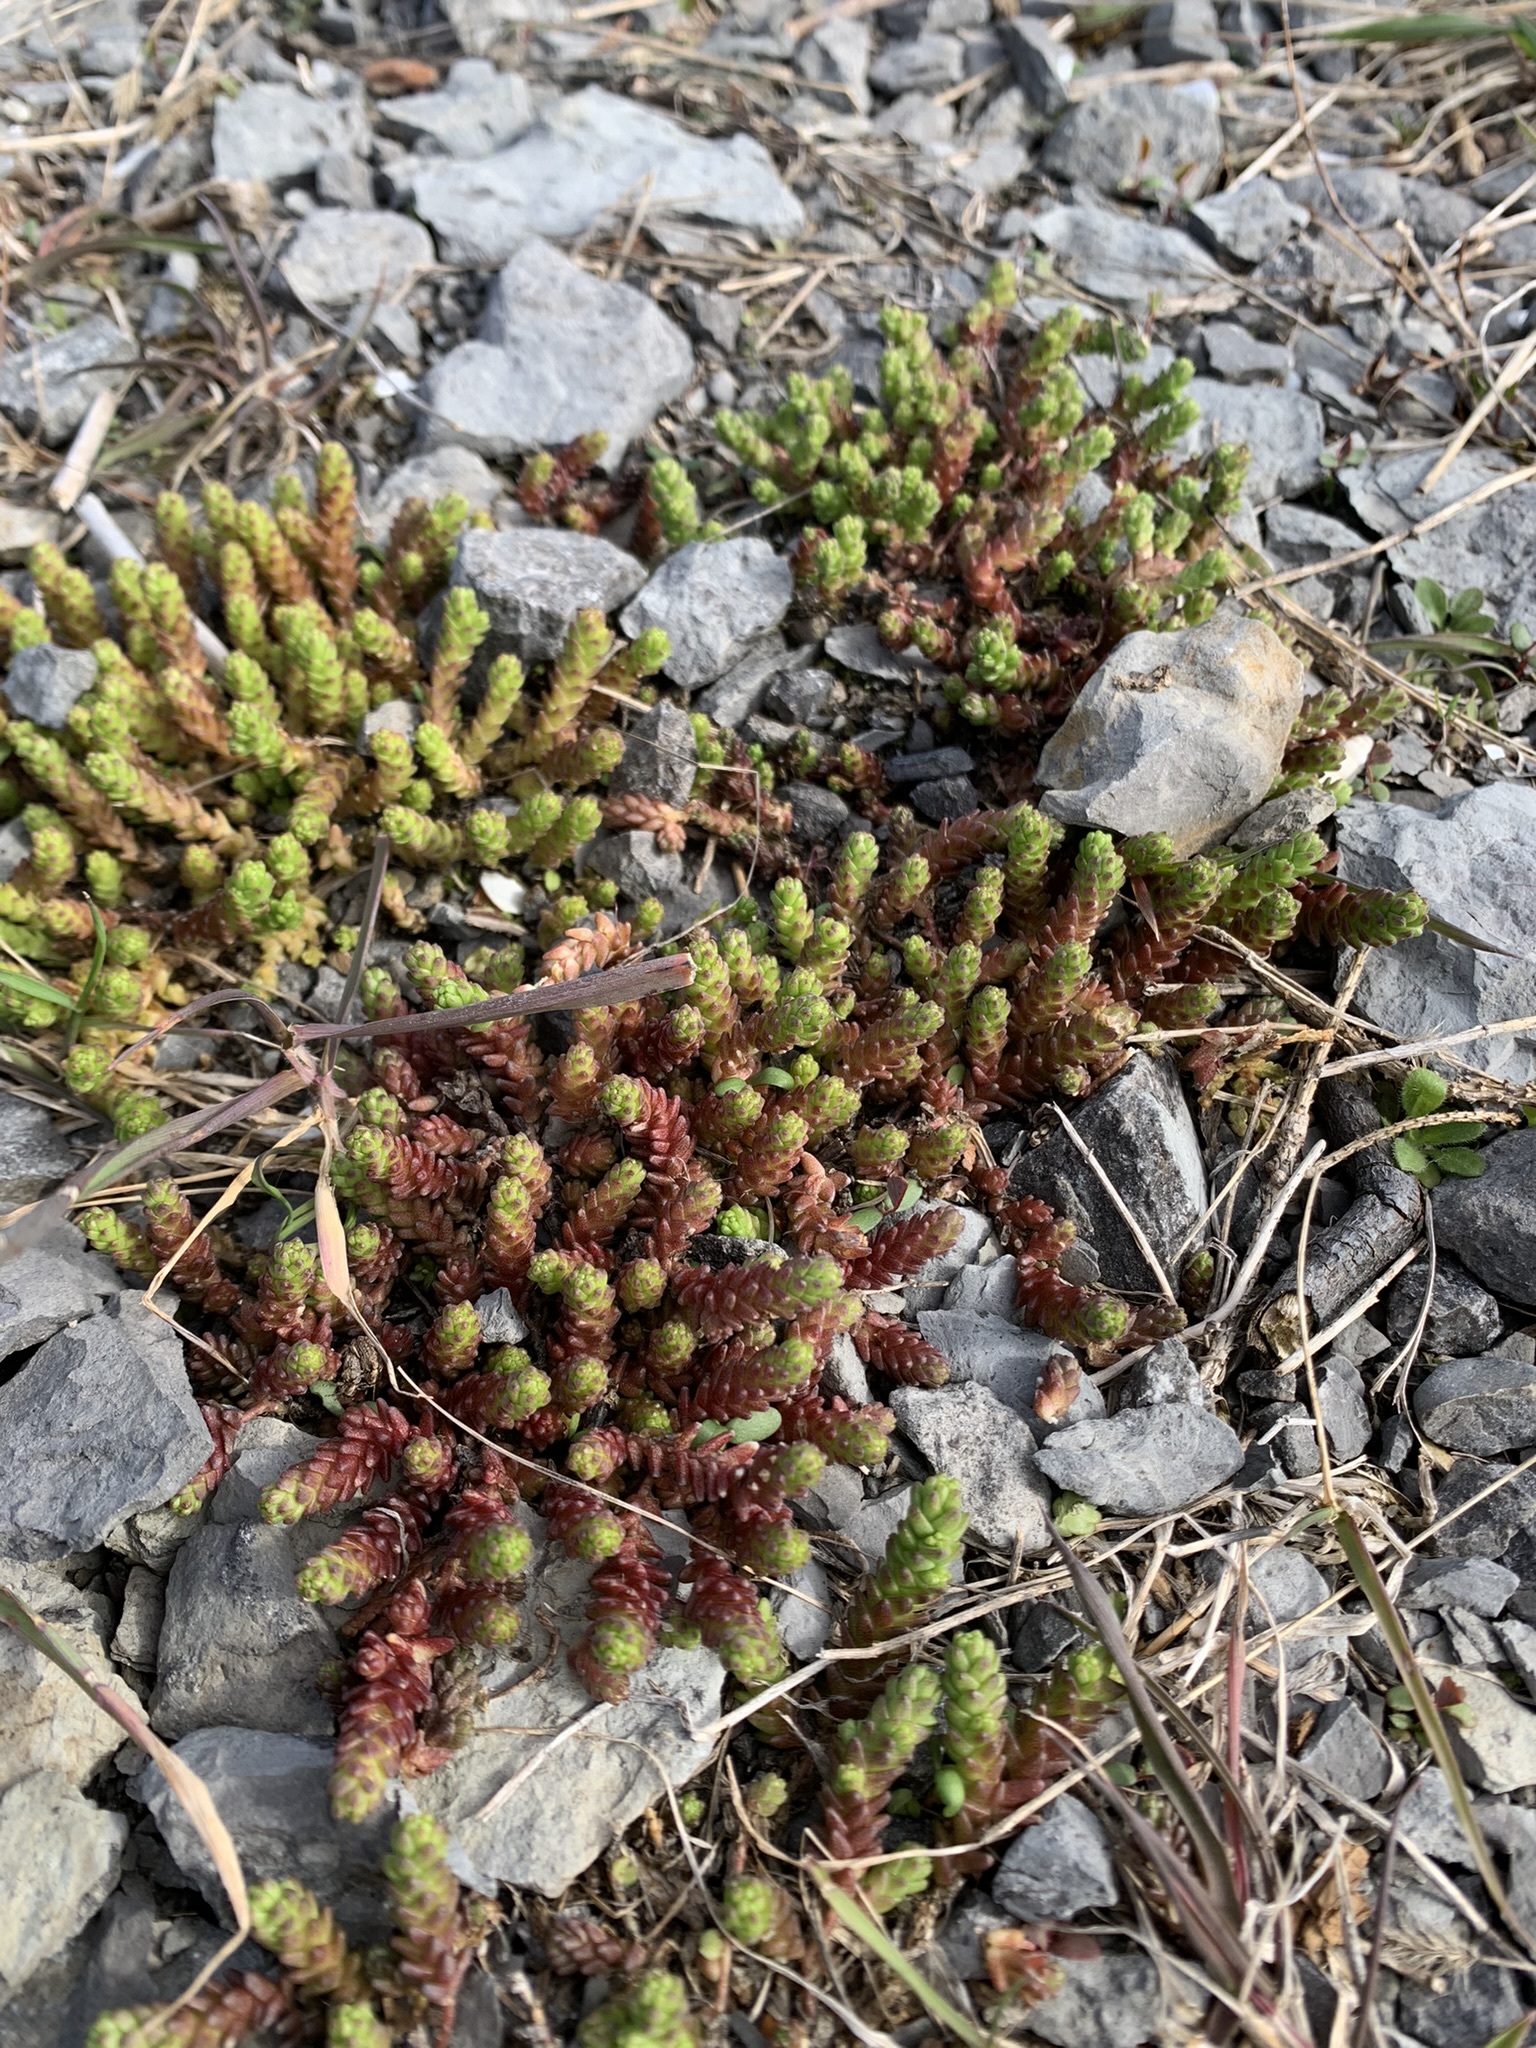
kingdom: Plantae
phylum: Tracheophyta
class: Magnoliopsida
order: Saxifragales
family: Crassulaceae
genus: Sedum
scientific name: Sedum acre
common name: Biting stonecrop
